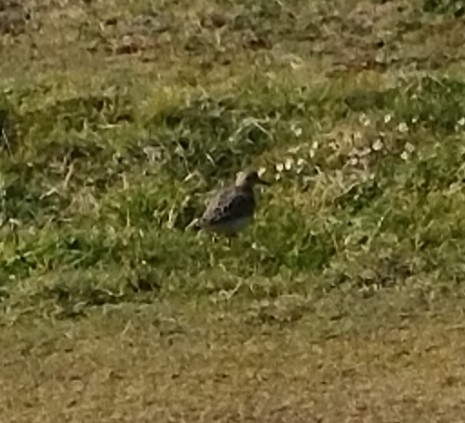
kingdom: Animalia
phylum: Chordata
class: Aves
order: Charadriiformes
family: Scolopacidae
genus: Calidris
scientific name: Calidris subruficollis
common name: Buff-breasted sandpiper
